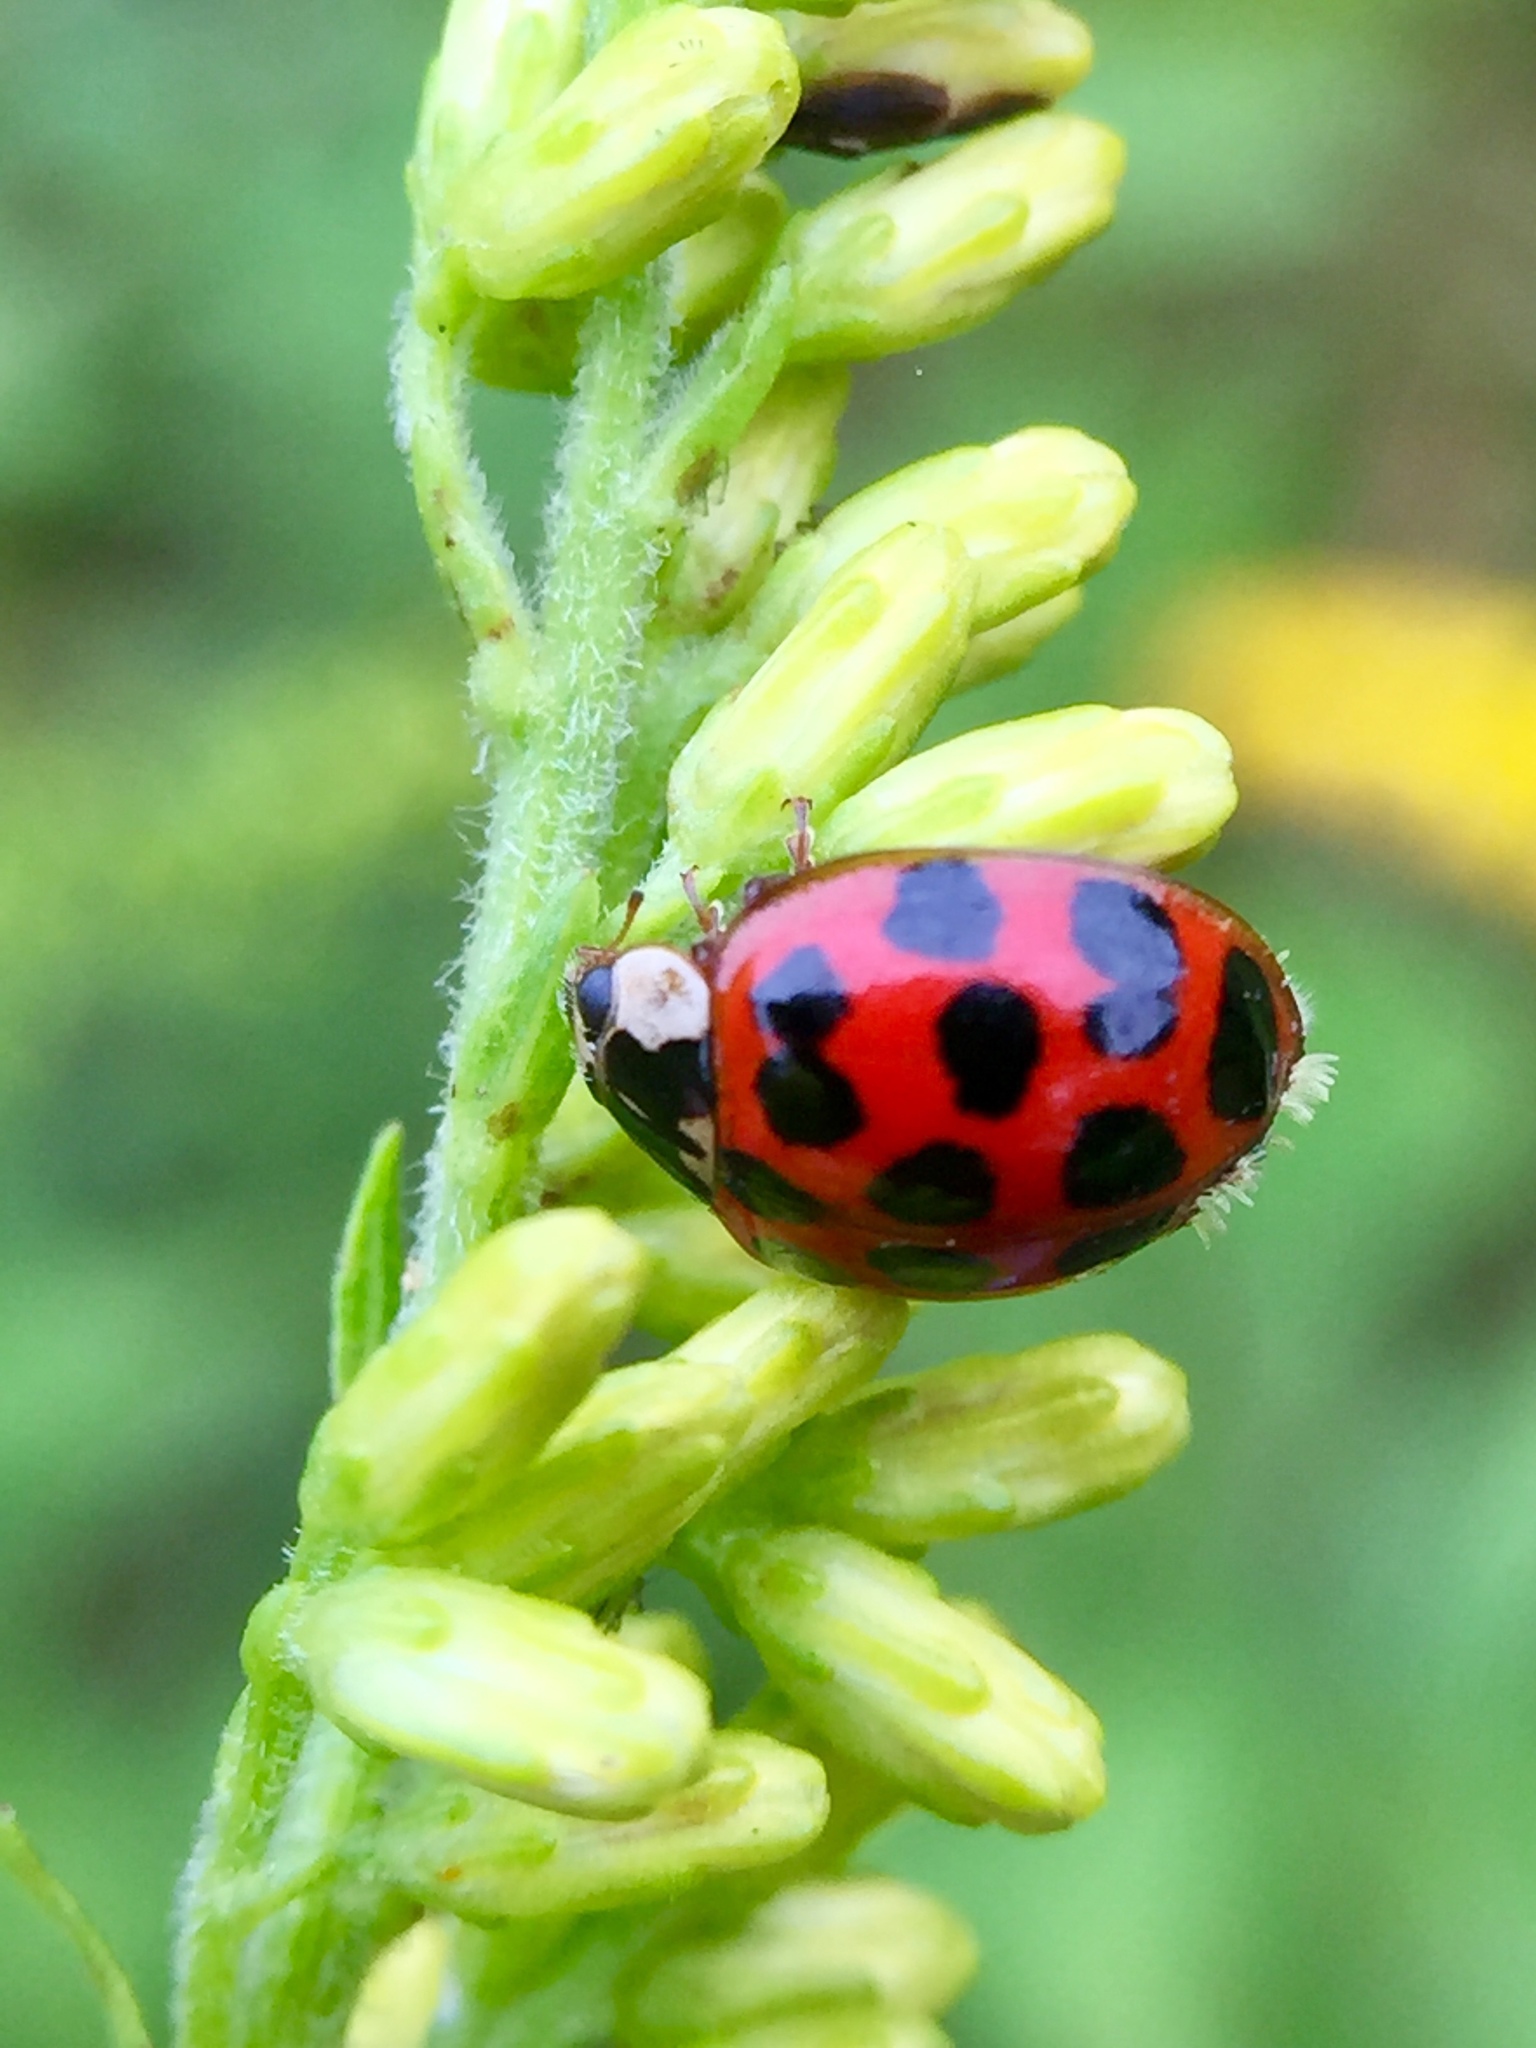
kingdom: Animalia
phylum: Arthropoda
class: Insecta
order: Coleoptera
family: Coccinellidae
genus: Harmonia
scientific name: Harmonia axyridis
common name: Harlequin ladybird
